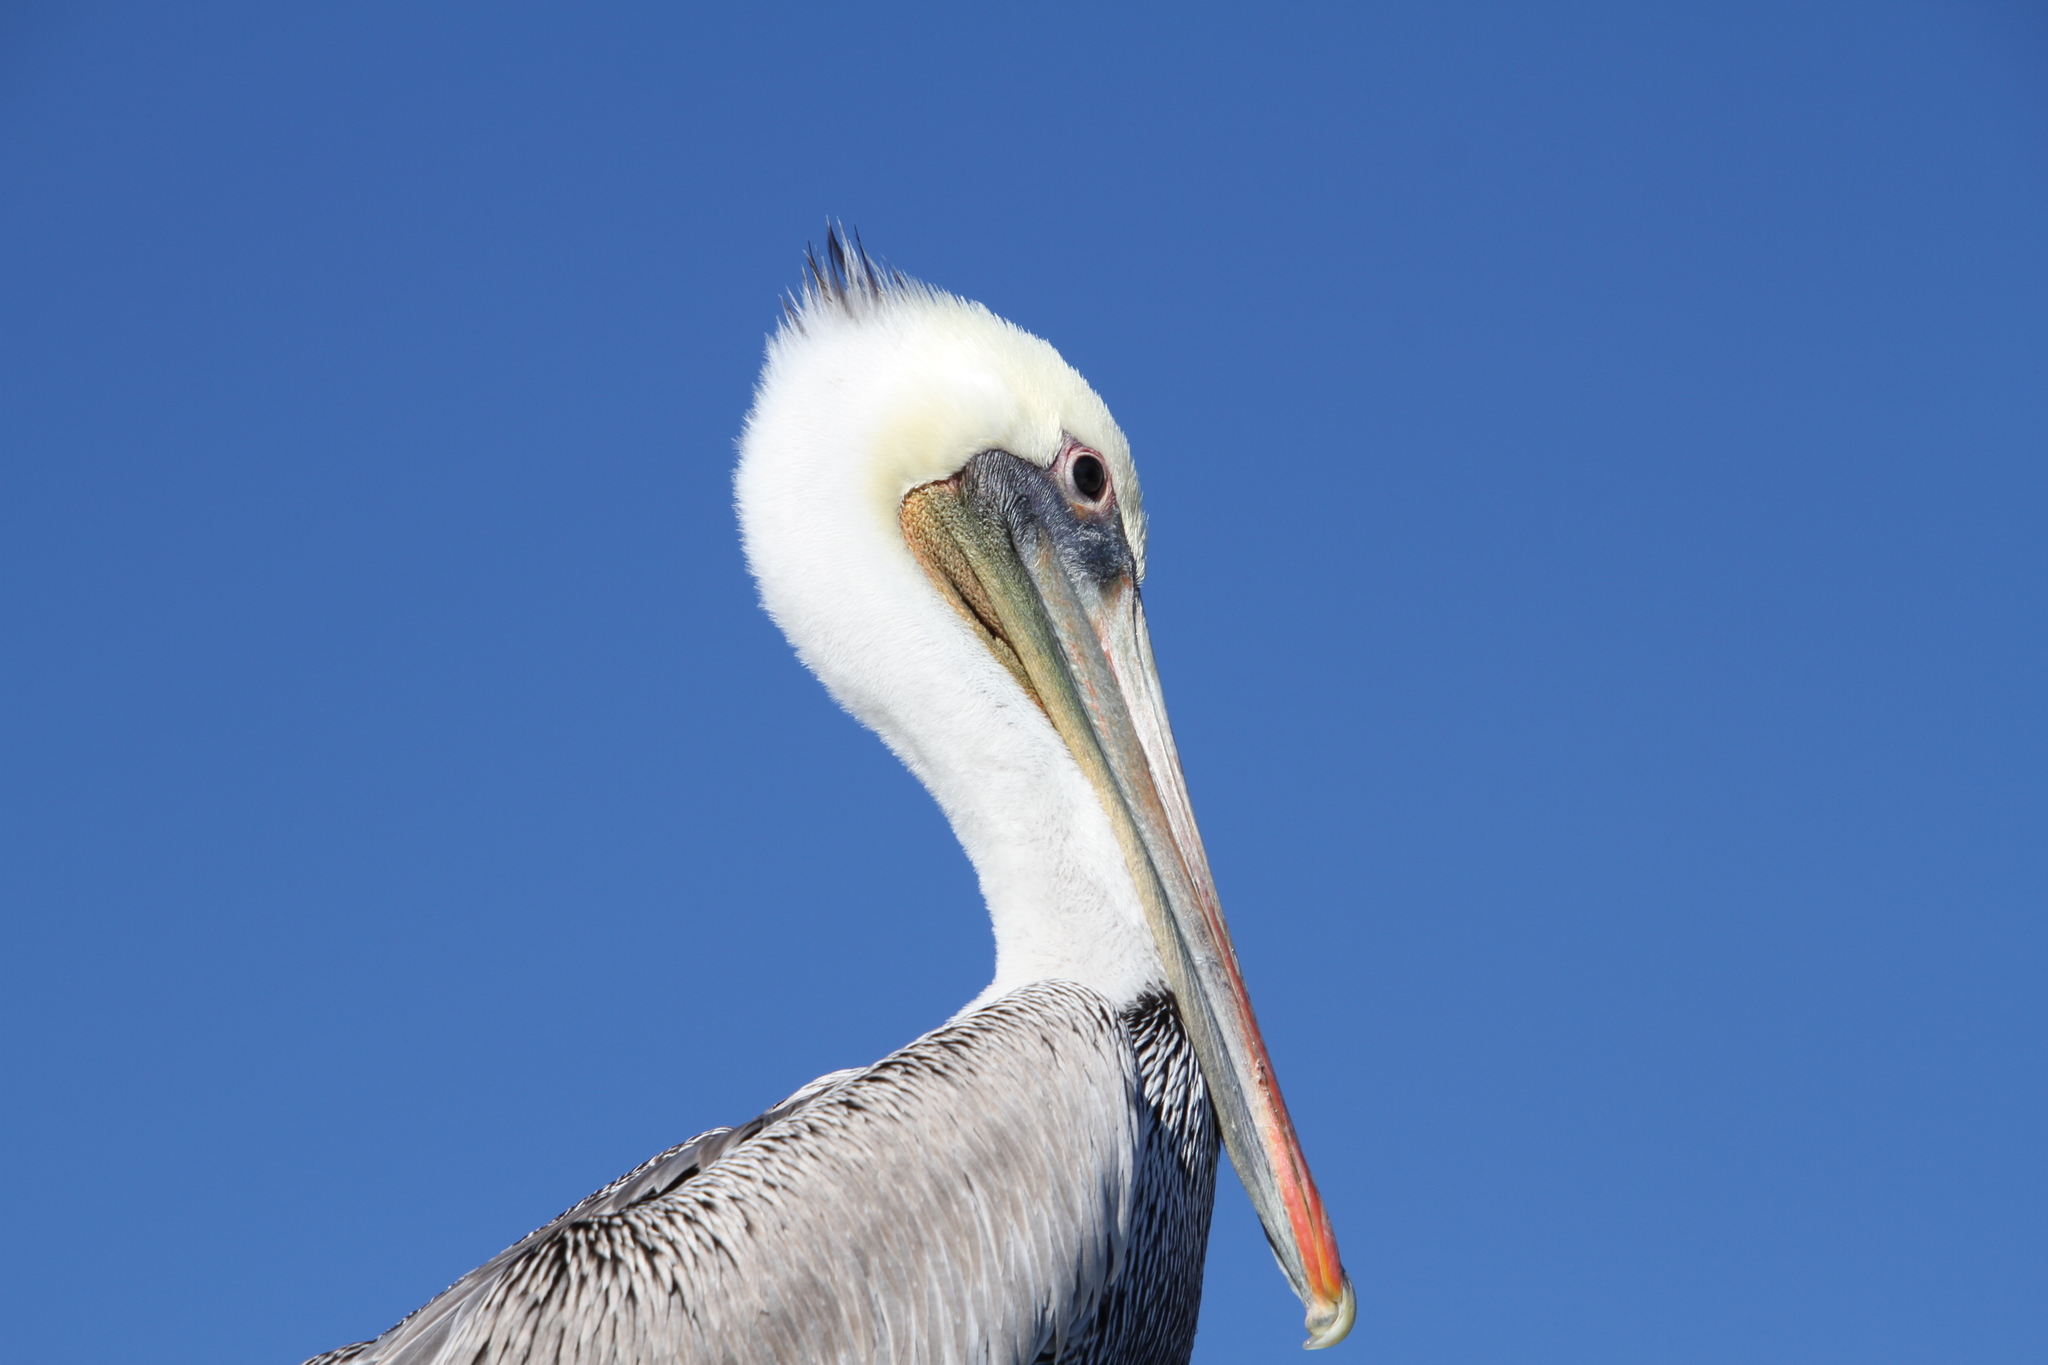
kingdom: Animalia
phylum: Chordata
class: Aves
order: Pelecaniformes
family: Pelecanidae
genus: Pelecanus
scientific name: Pelecanus occidentalis
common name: Brown pelican
